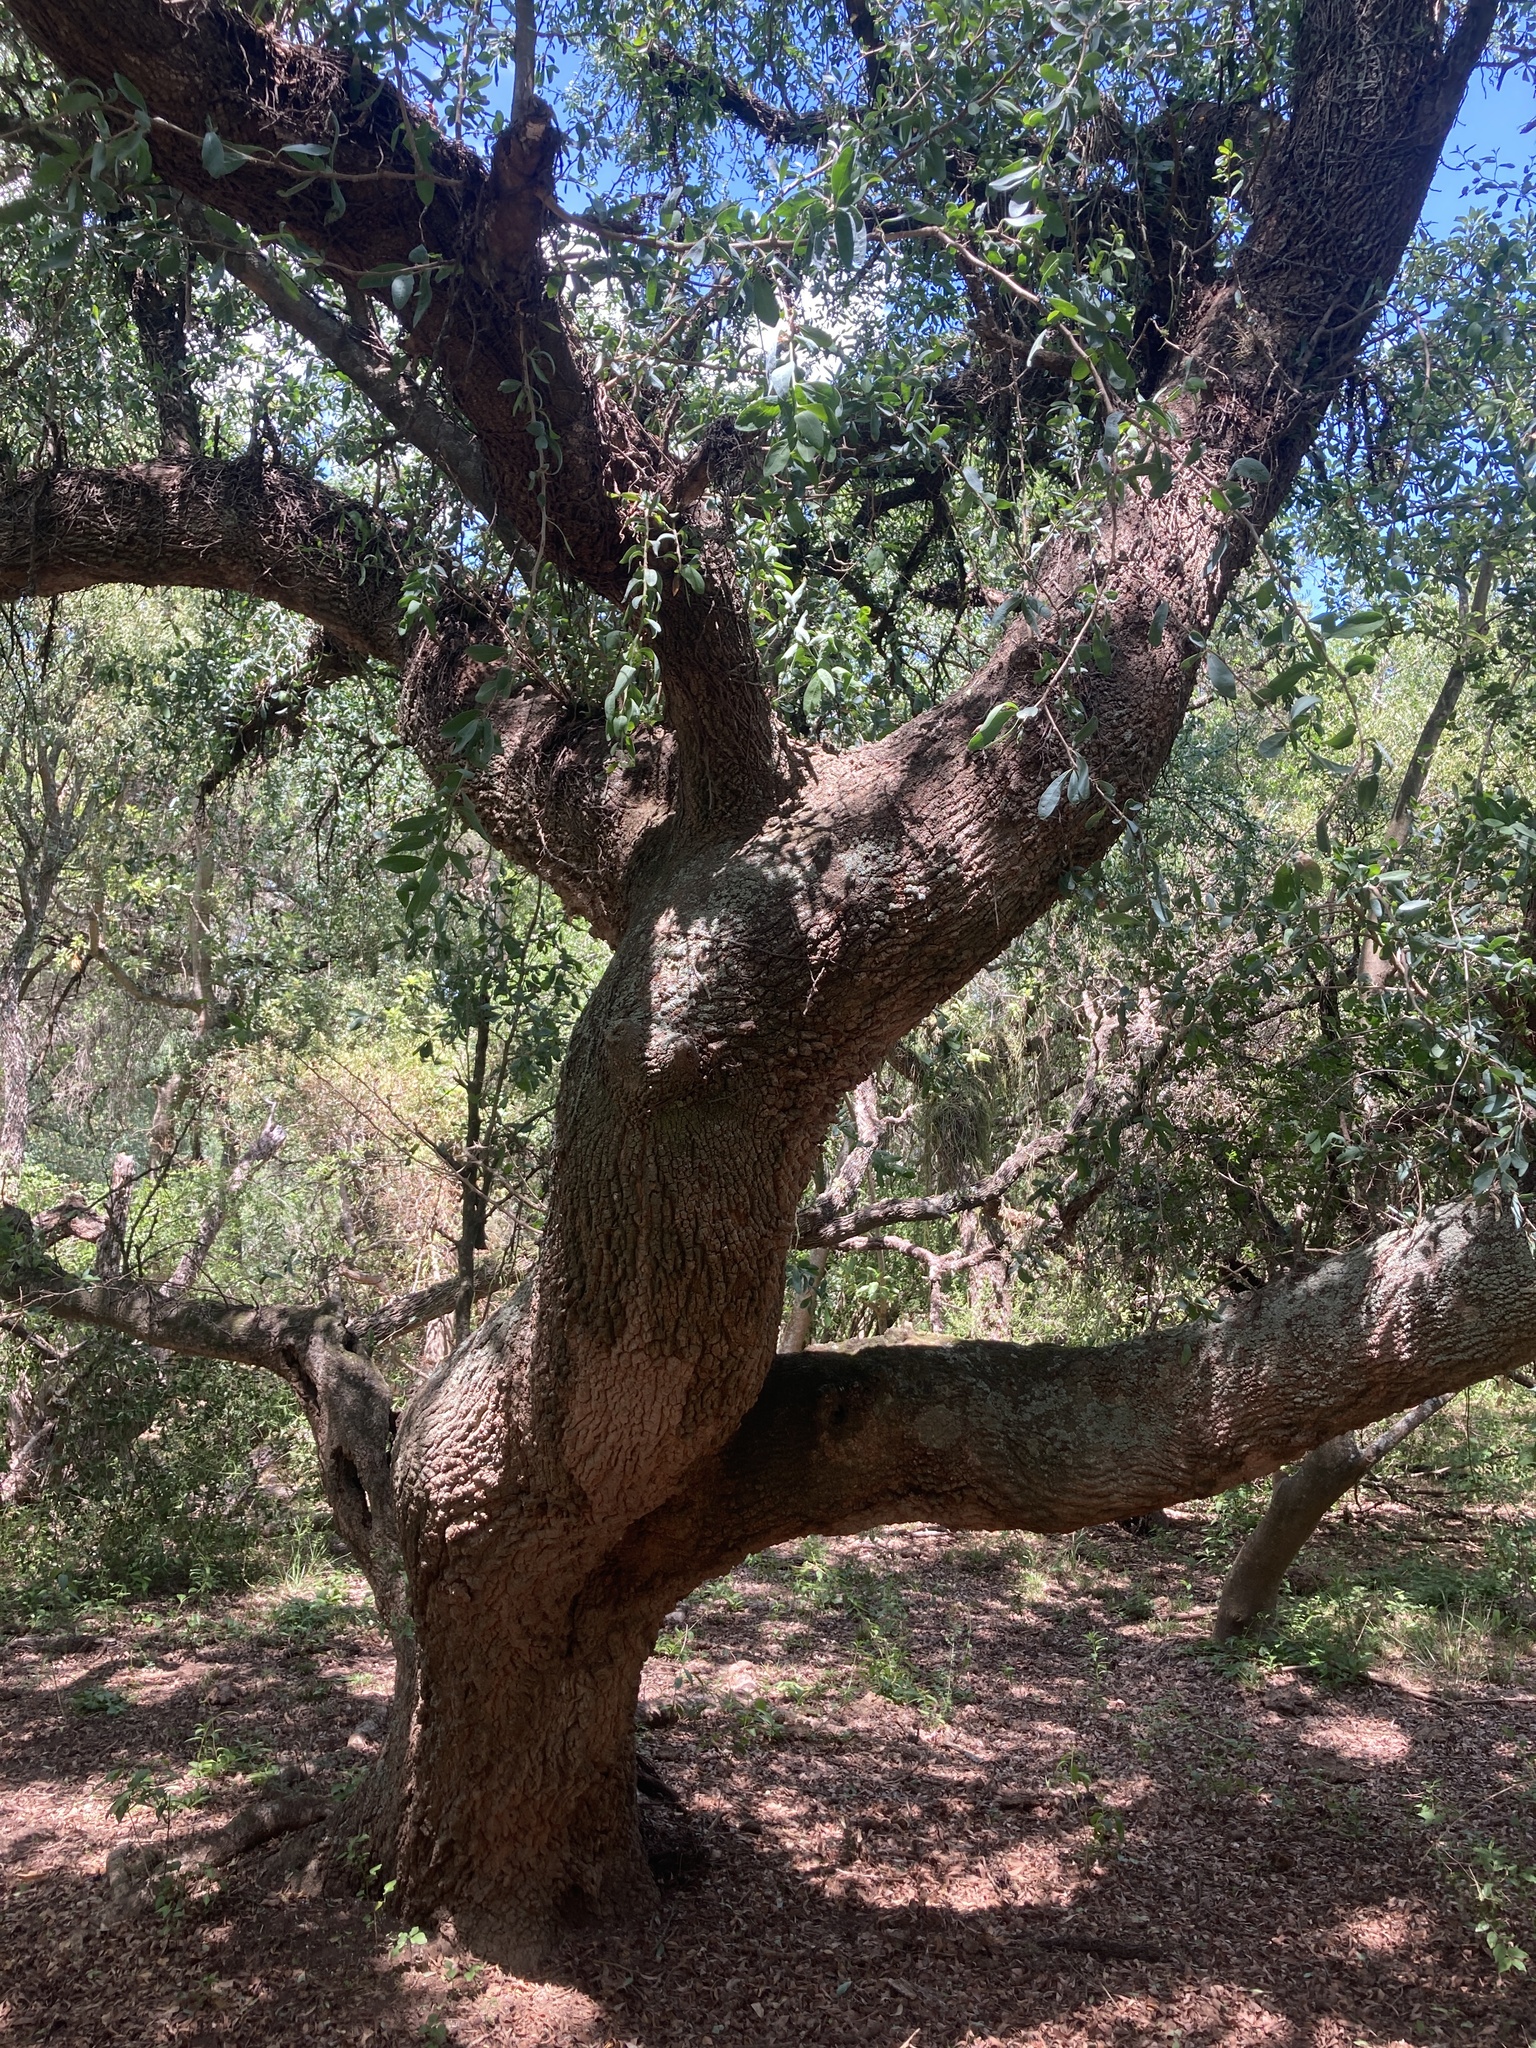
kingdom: Plantae
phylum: Tracheophyta
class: Magnoliopsida
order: Santalales
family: Cervantesiaceae
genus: Acanthosyris
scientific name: Acanthosyris spinescens
